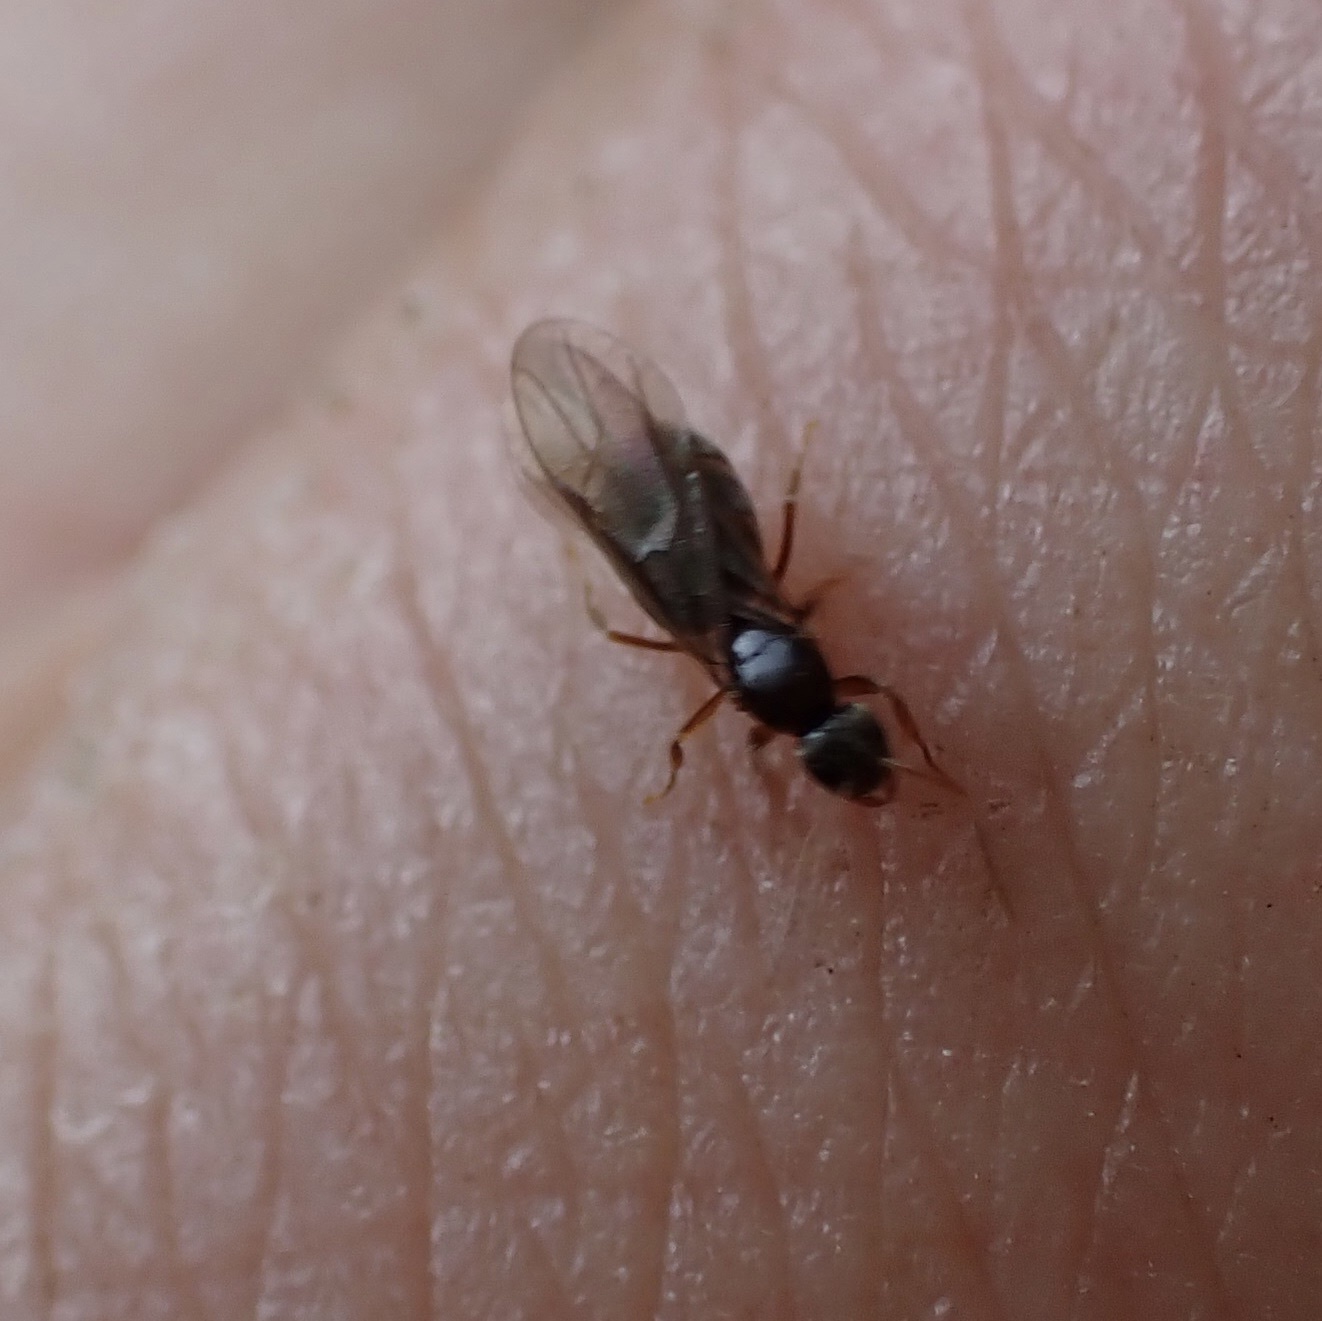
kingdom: Animalia
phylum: Arthropoda
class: Insecta
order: Hymenoptera
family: Formicidae
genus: Paratrechina
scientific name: Paratrechina flavipes
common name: Eastern asian formicine ant
